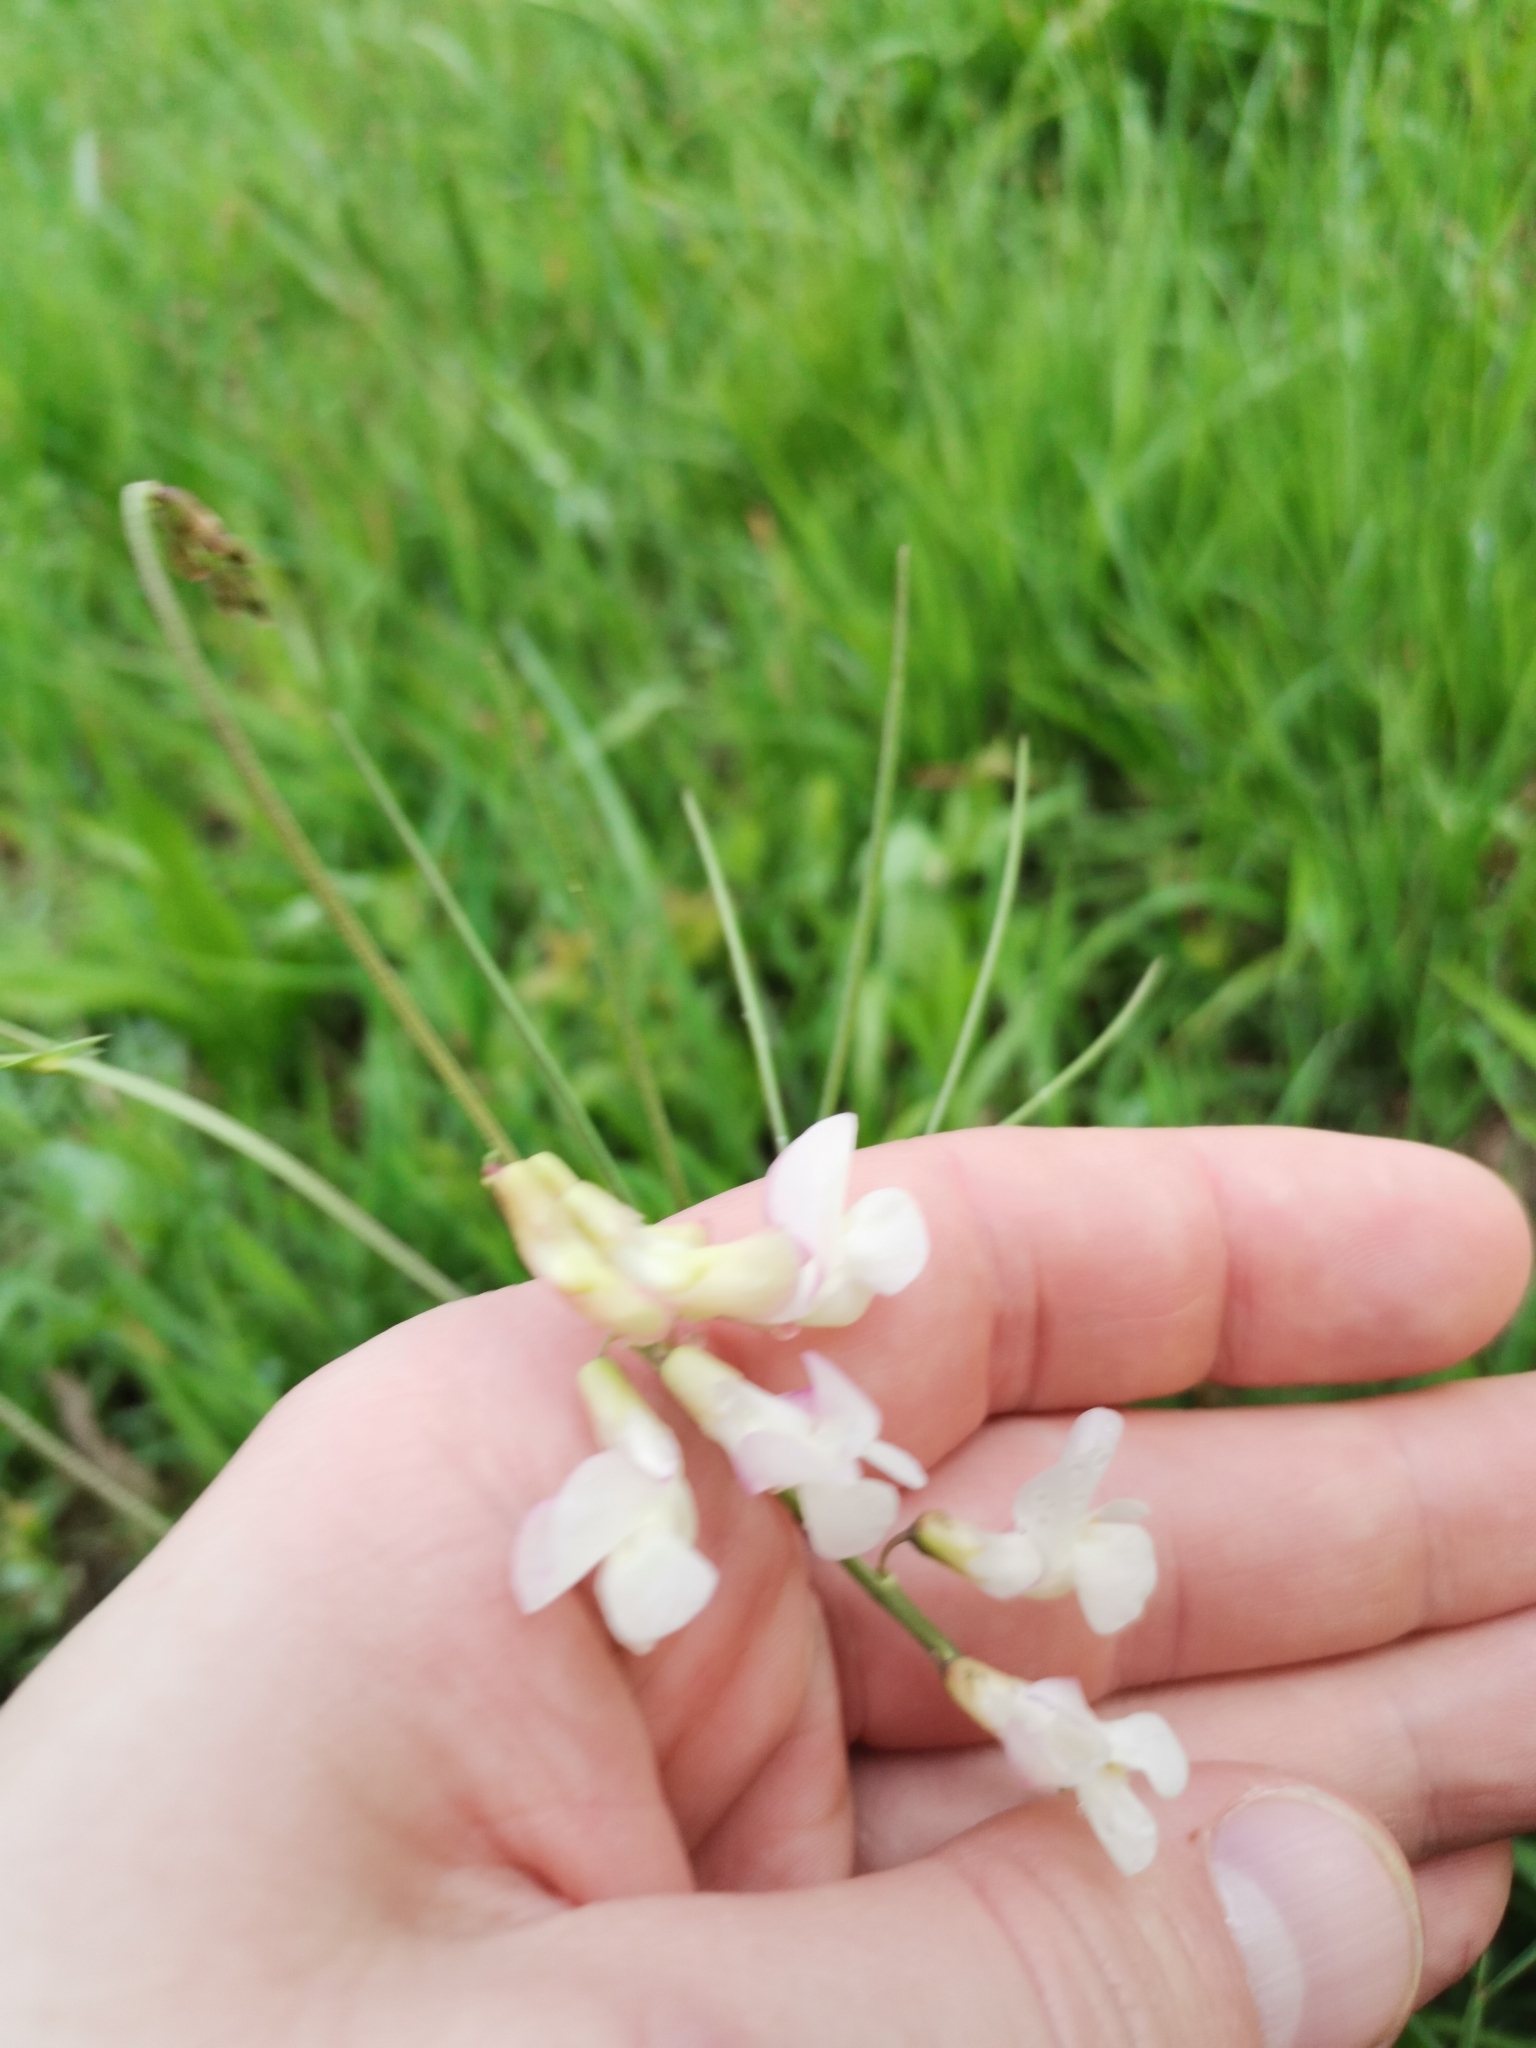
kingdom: Plantae
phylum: Tracheophyta
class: Magnoliopsida
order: Fabales
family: Fabaceae
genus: Lathyrus
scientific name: Lathyrus pannonicus
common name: Pea
